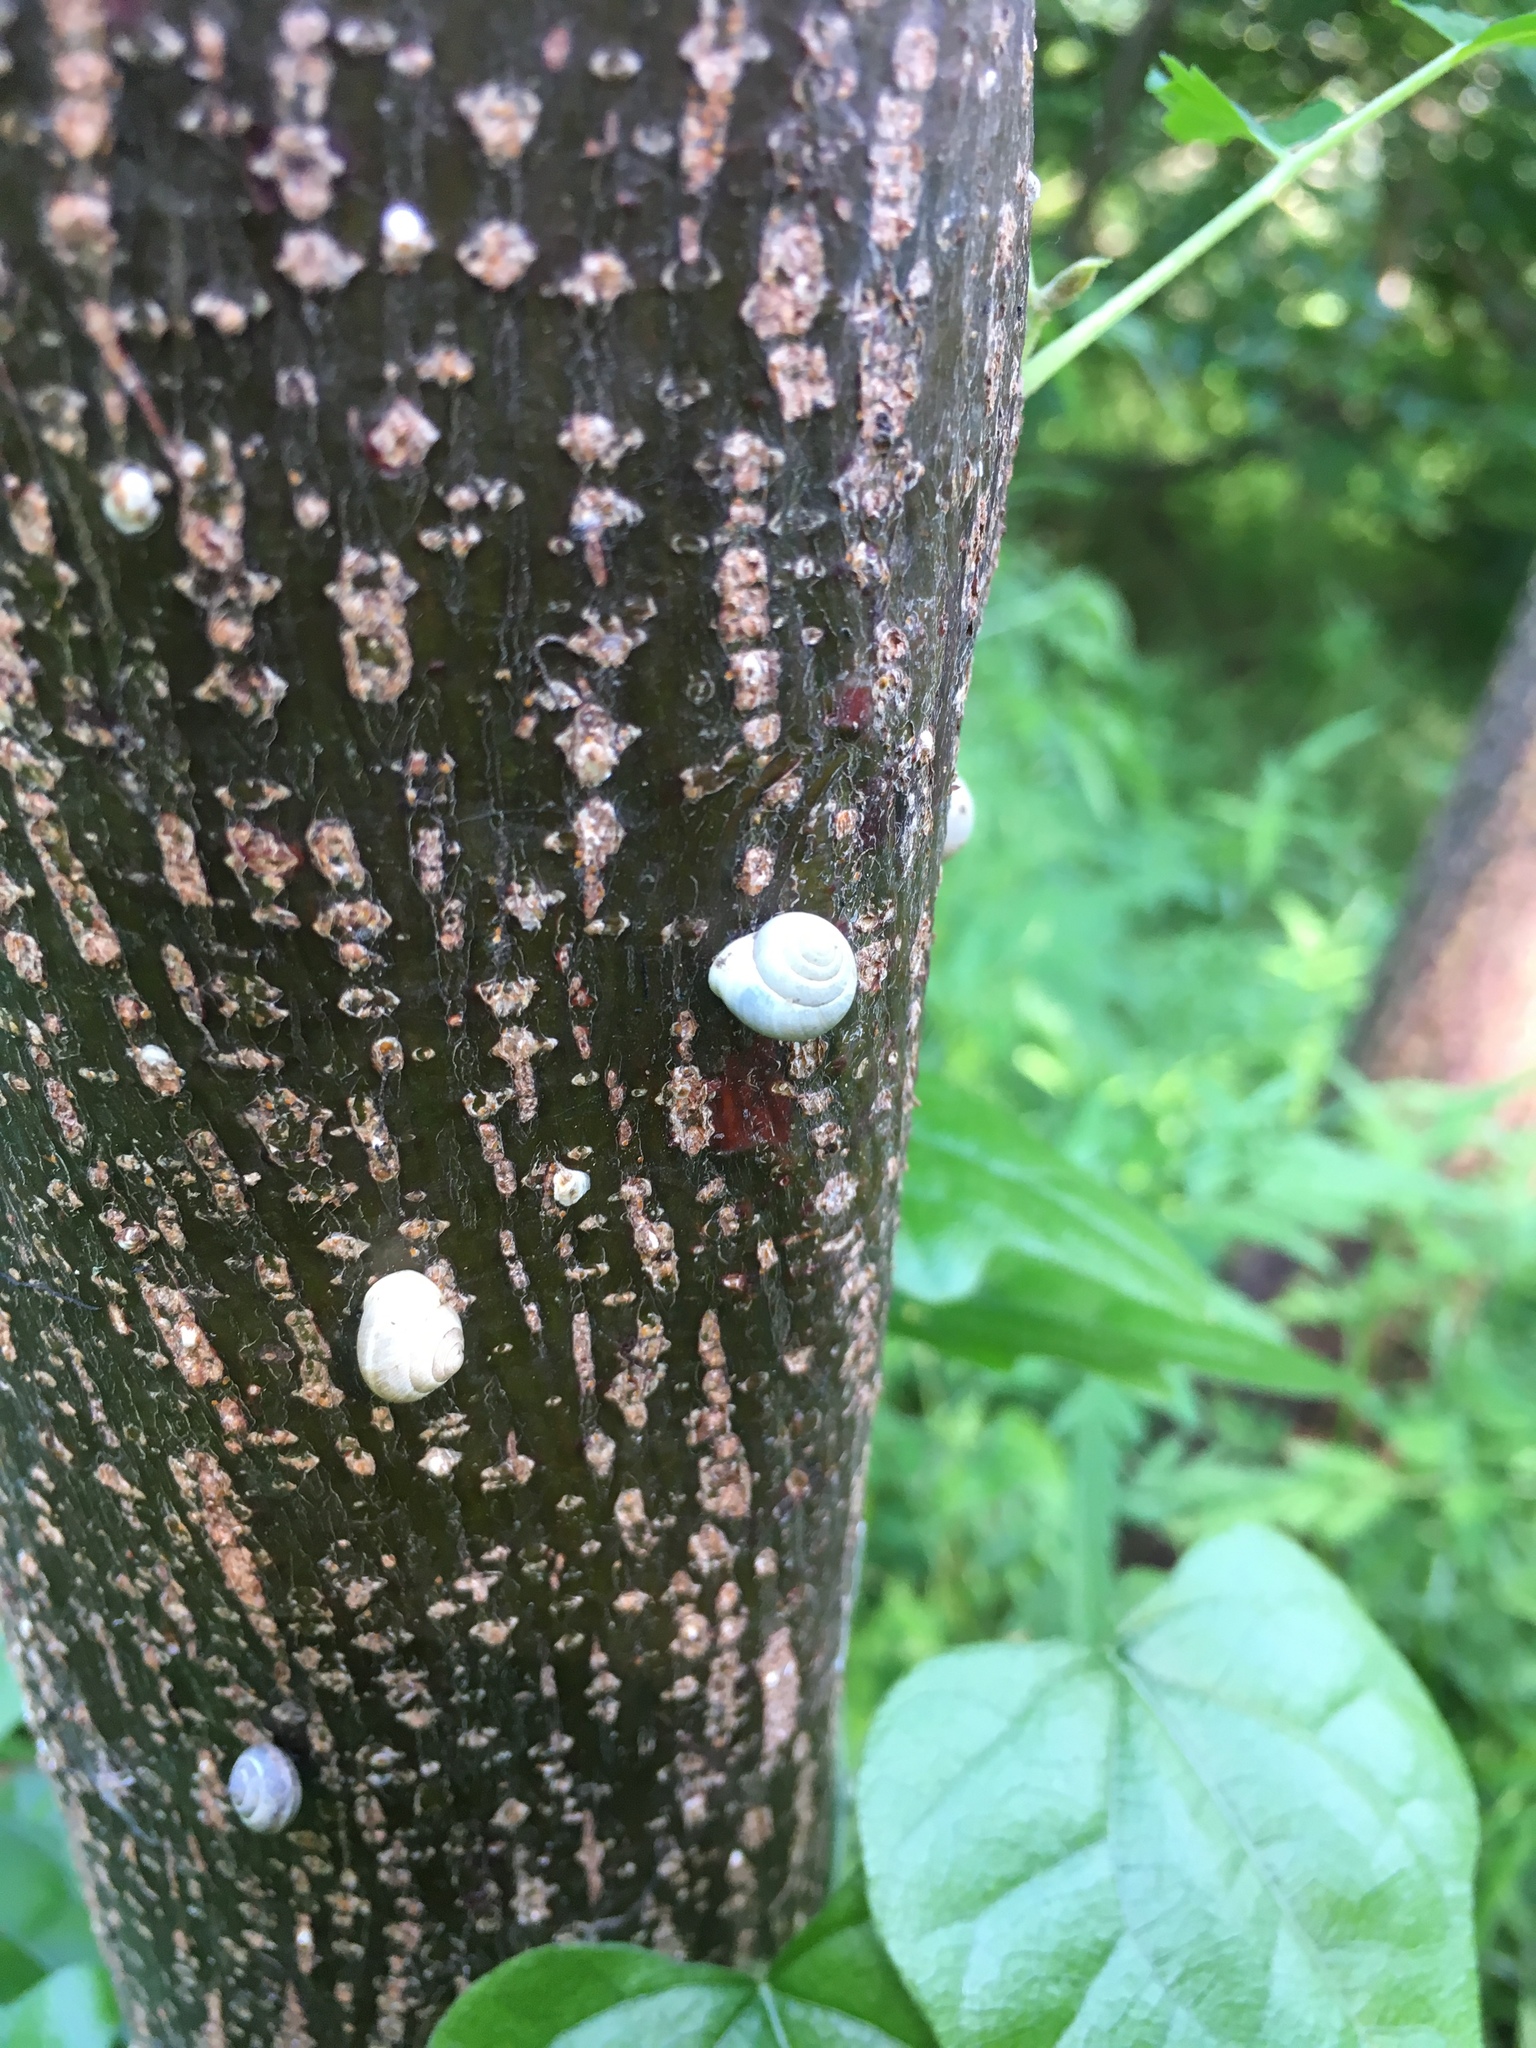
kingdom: Animalia
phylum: Mollusca
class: Gastropoda
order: Cycloneritida
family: Helicinidae
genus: Helicina
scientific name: Helicina orbiculata
